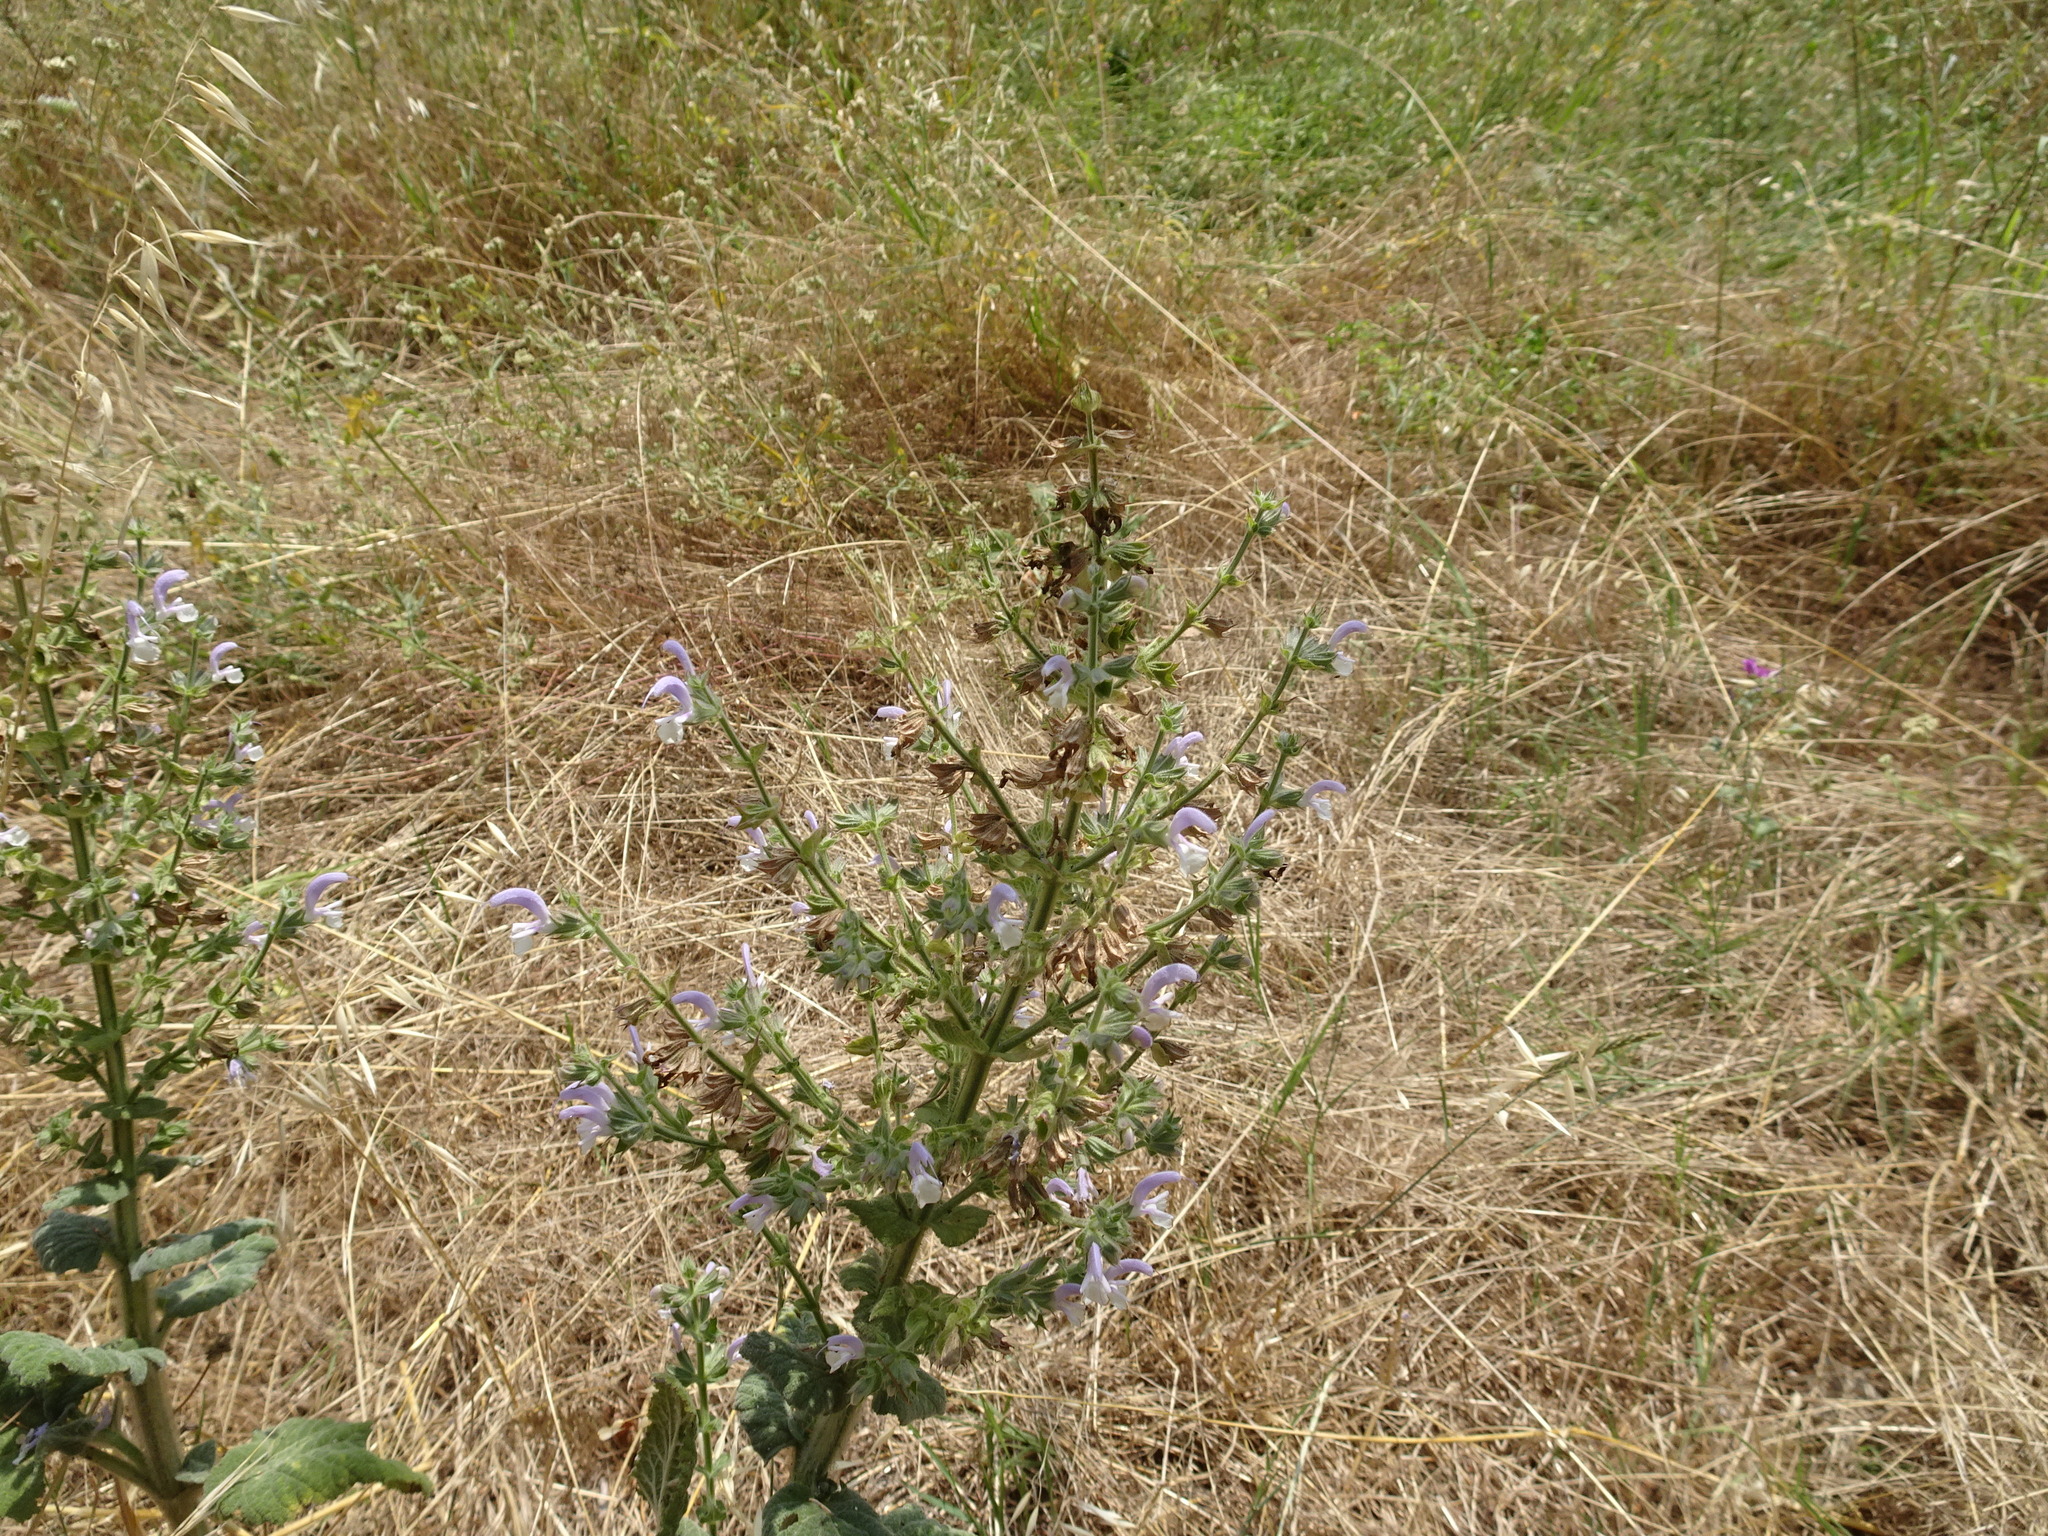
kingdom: Plantae
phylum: Tracheophyta
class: Magnoliopsida
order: Lamiales
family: Lamiaceae
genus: Salvia
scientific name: Salvia sclarea
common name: Clary
